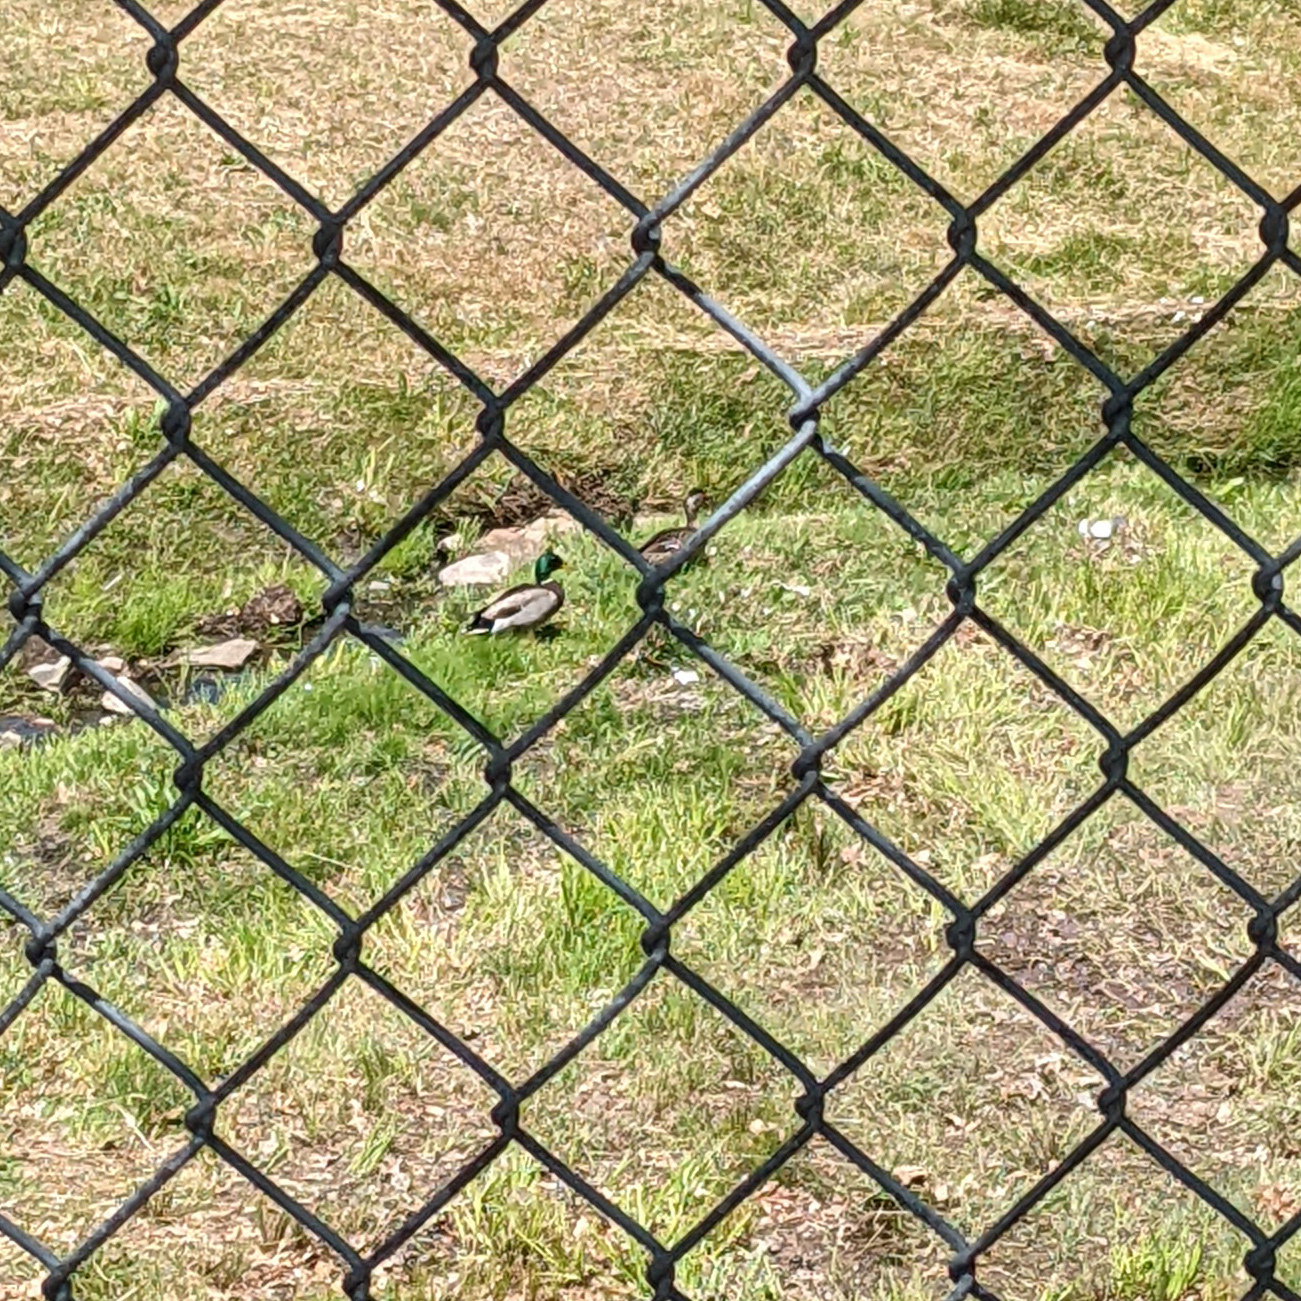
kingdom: Animalia
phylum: Chordata
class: Aves
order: Anseriformes
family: Anatidae
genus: Anas
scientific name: Anas platyrhynchos
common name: Mallard
